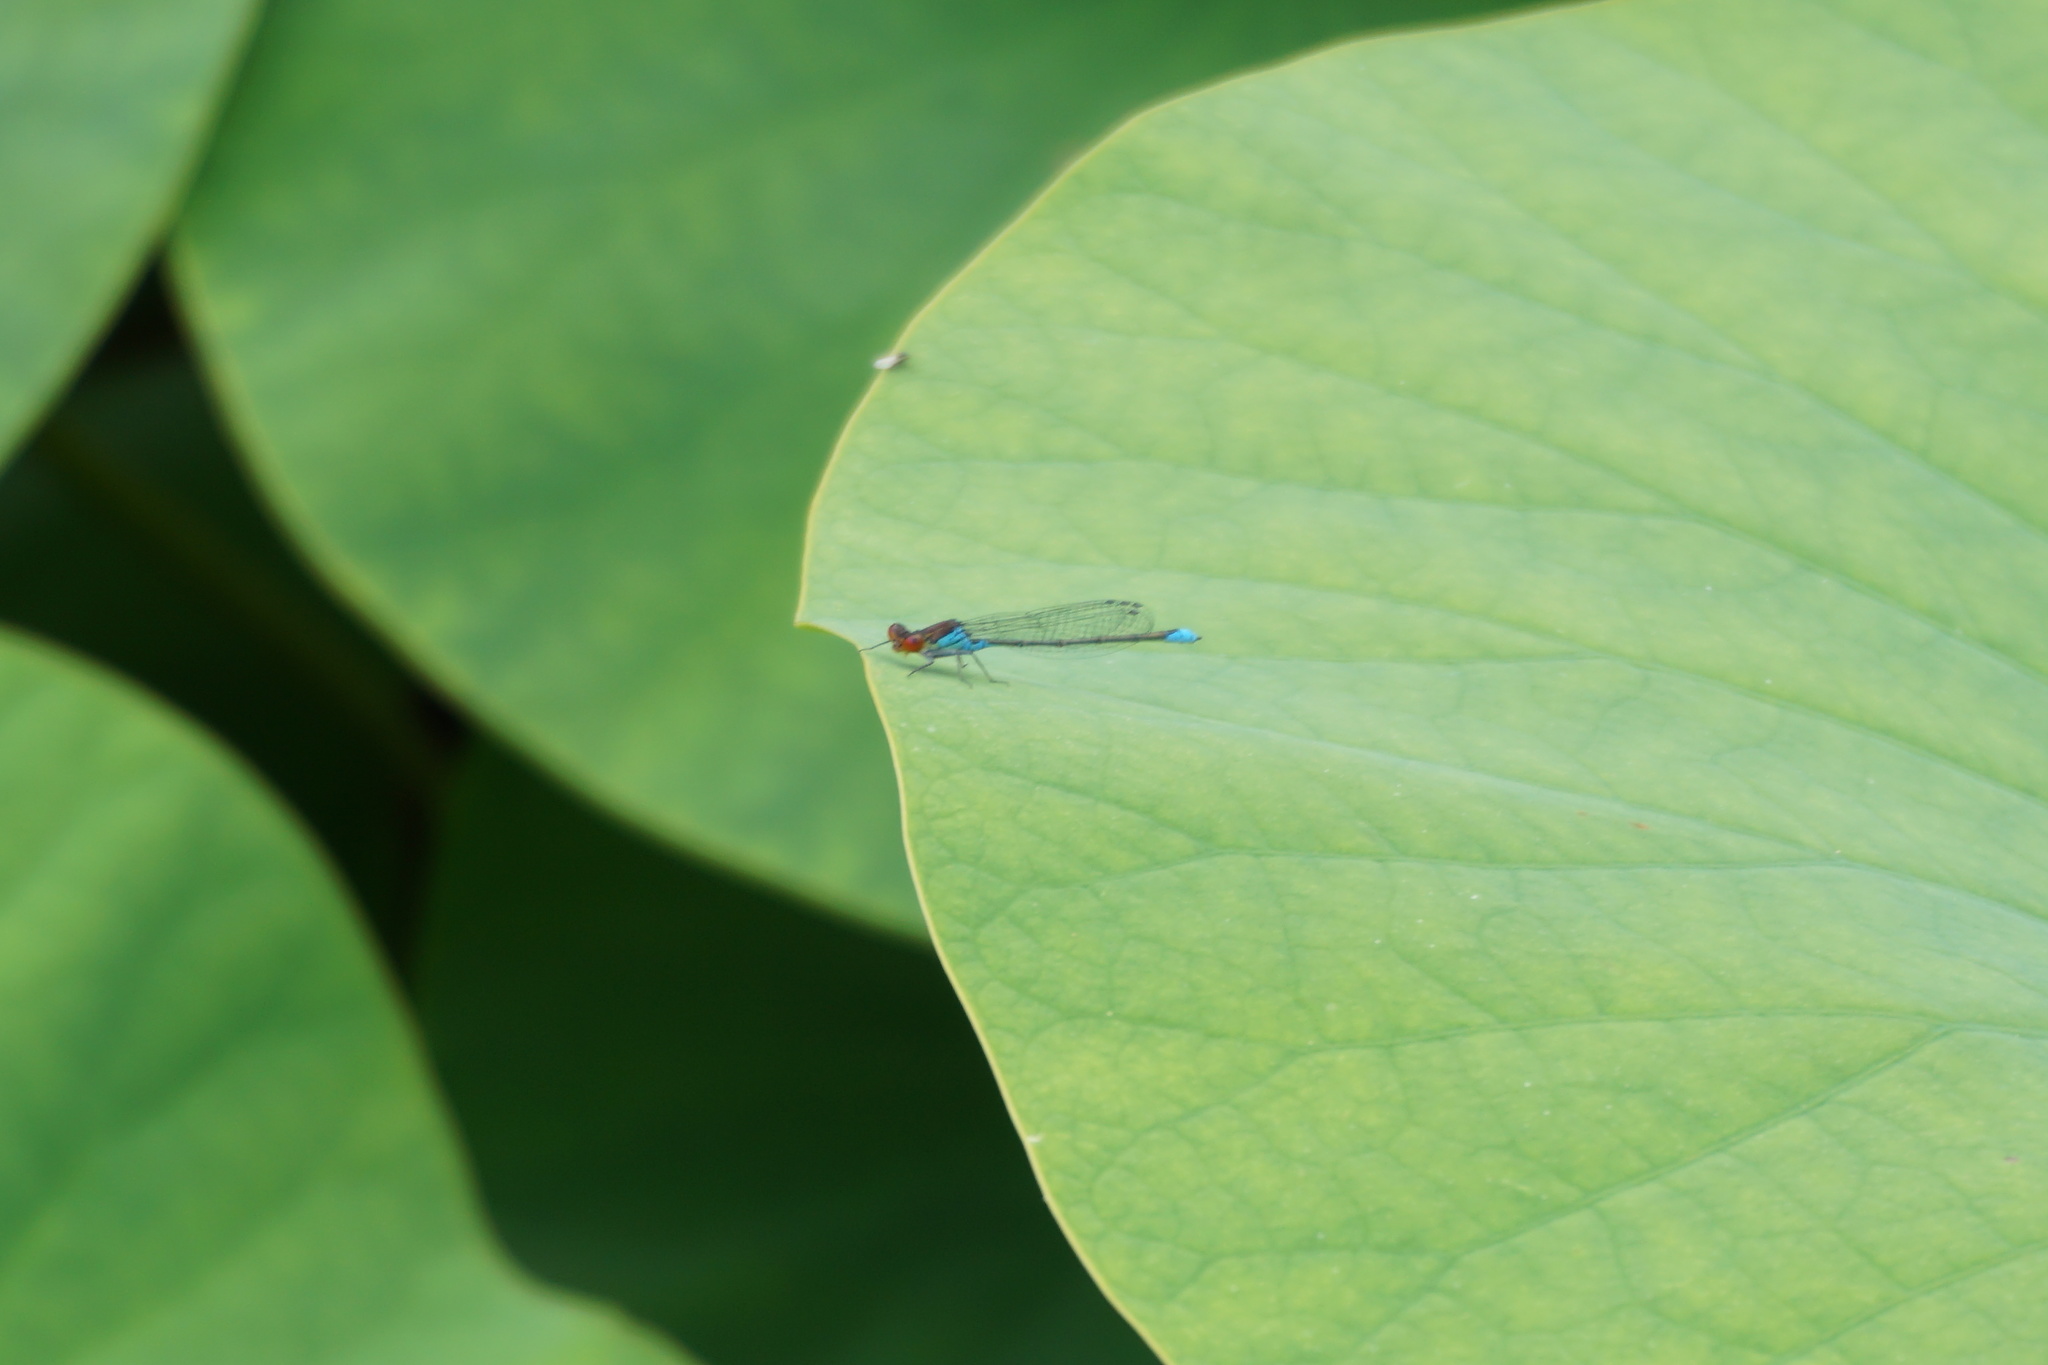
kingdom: Animalia
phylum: Arthropoda
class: Insecta
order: Odonata
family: Coenagrionidae
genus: Erythromma
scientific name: Erythromma viridulum
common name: Small red-eyed damselfly
